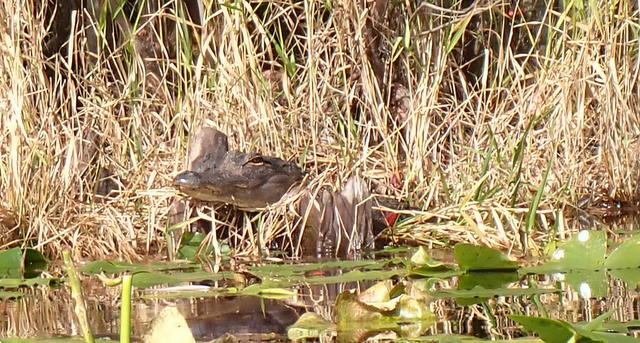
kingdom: Animalia
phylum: Chordata
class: Crocodylia
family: Alligatoridae
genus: Alligator
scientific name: Alligator mississippiensis
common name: American alligator
